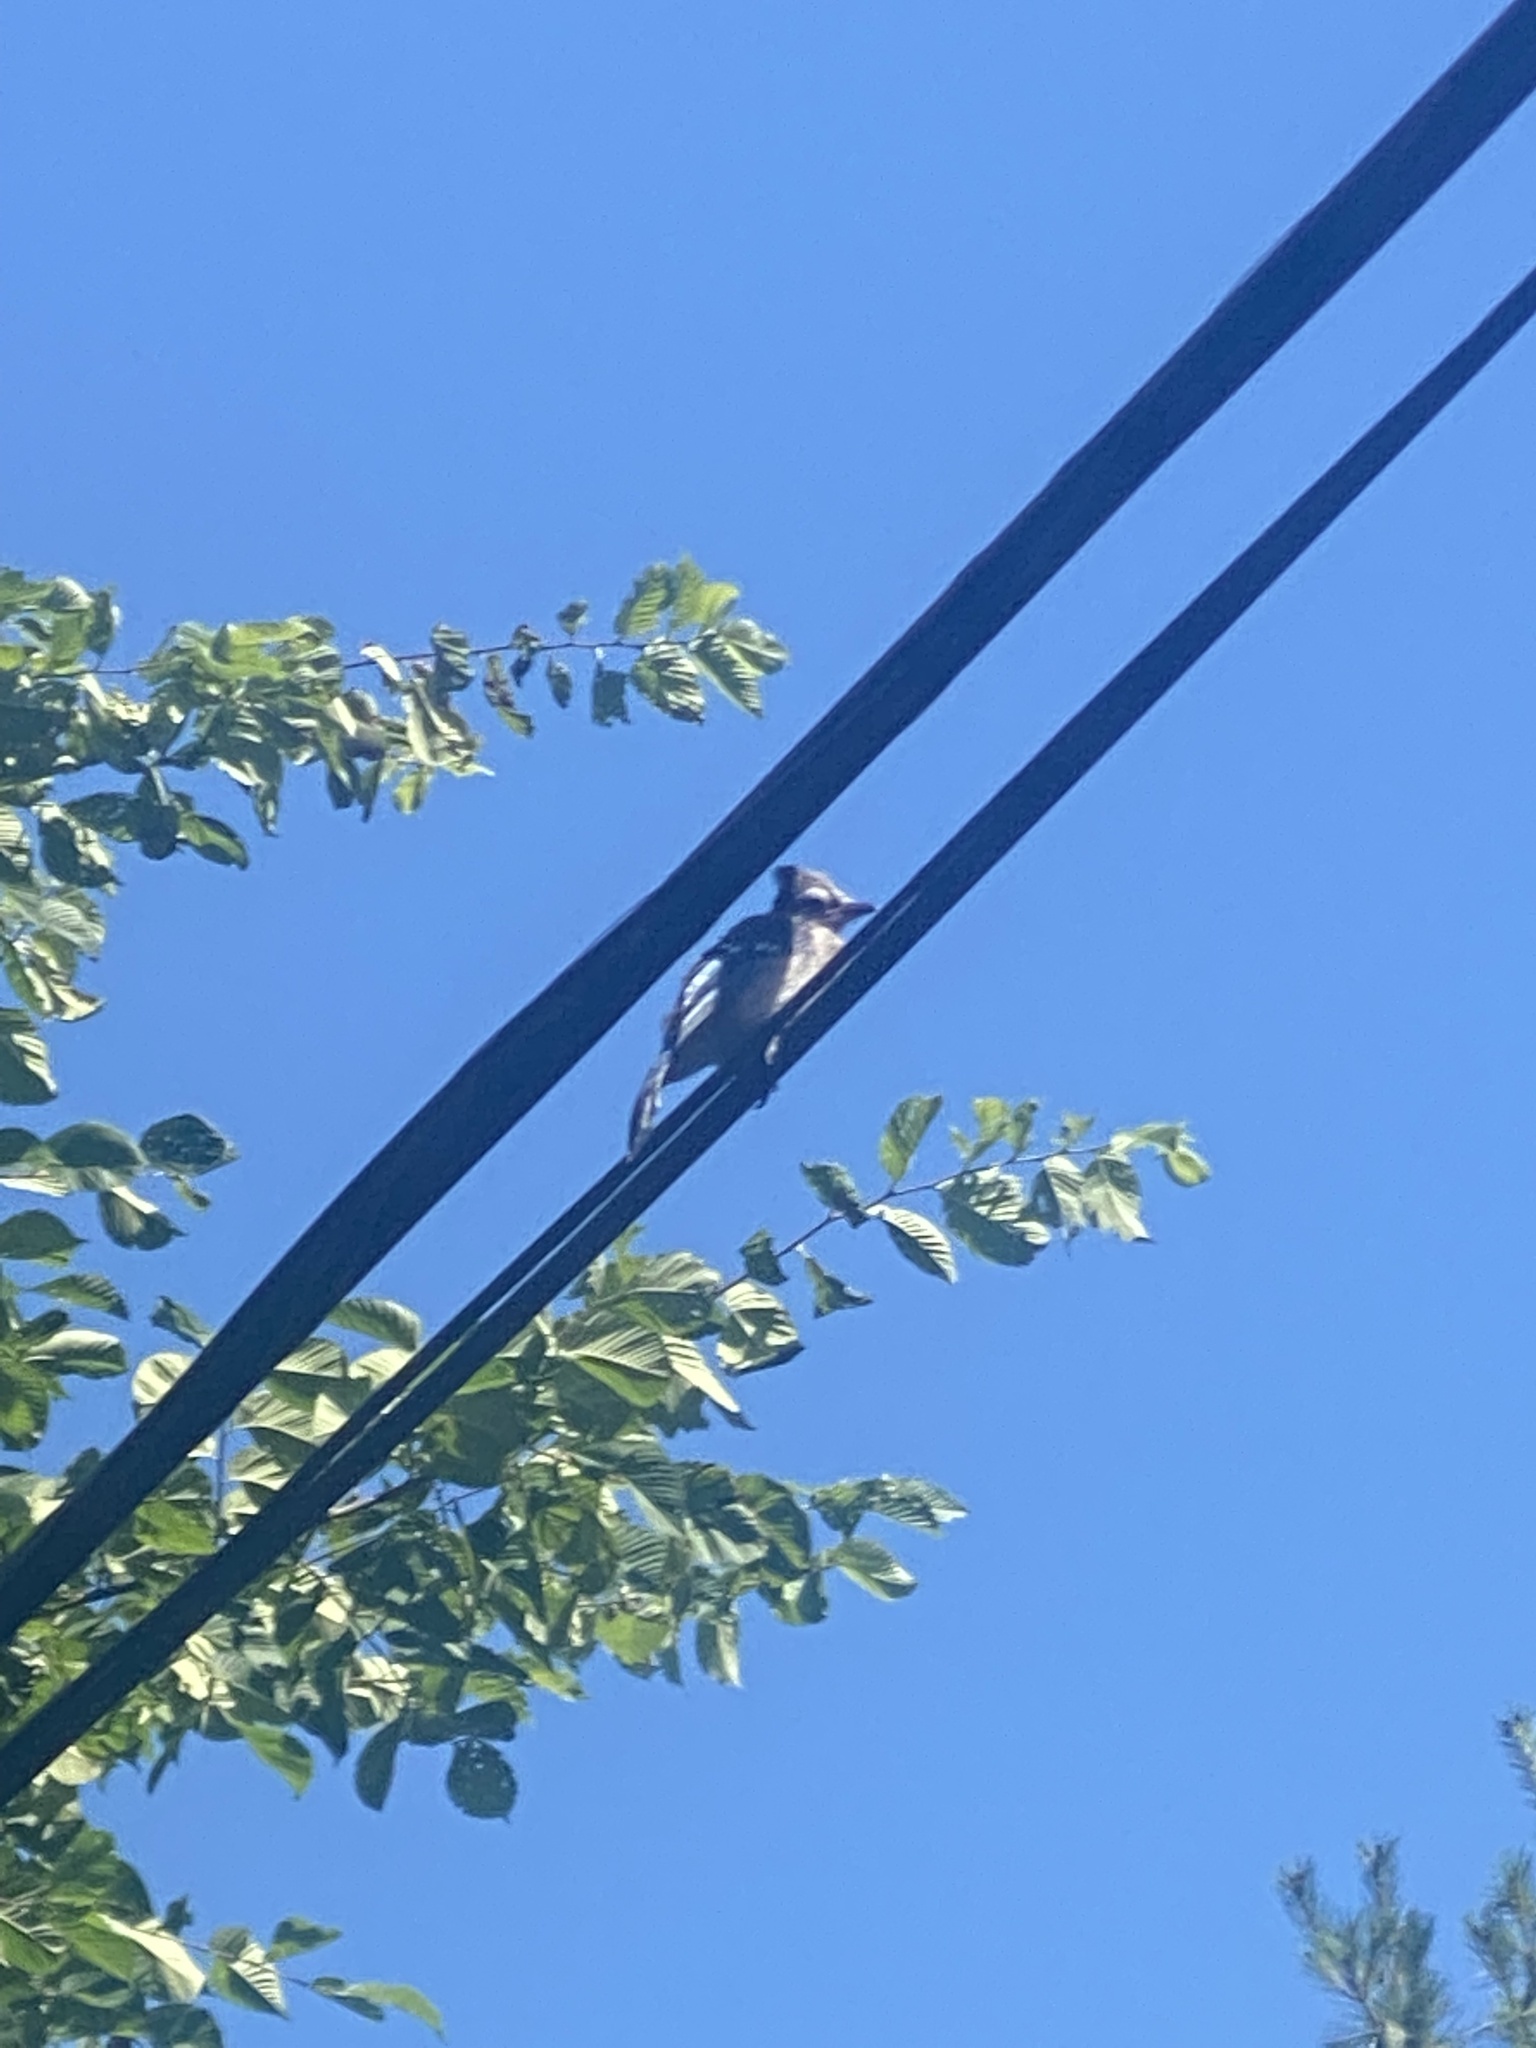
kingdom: Animalia
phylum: Chordata
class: Aves
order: Passeriformes
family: Corvidae
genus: Cyanocitta
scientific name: Cyanocitta cristata
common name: Blue jay
